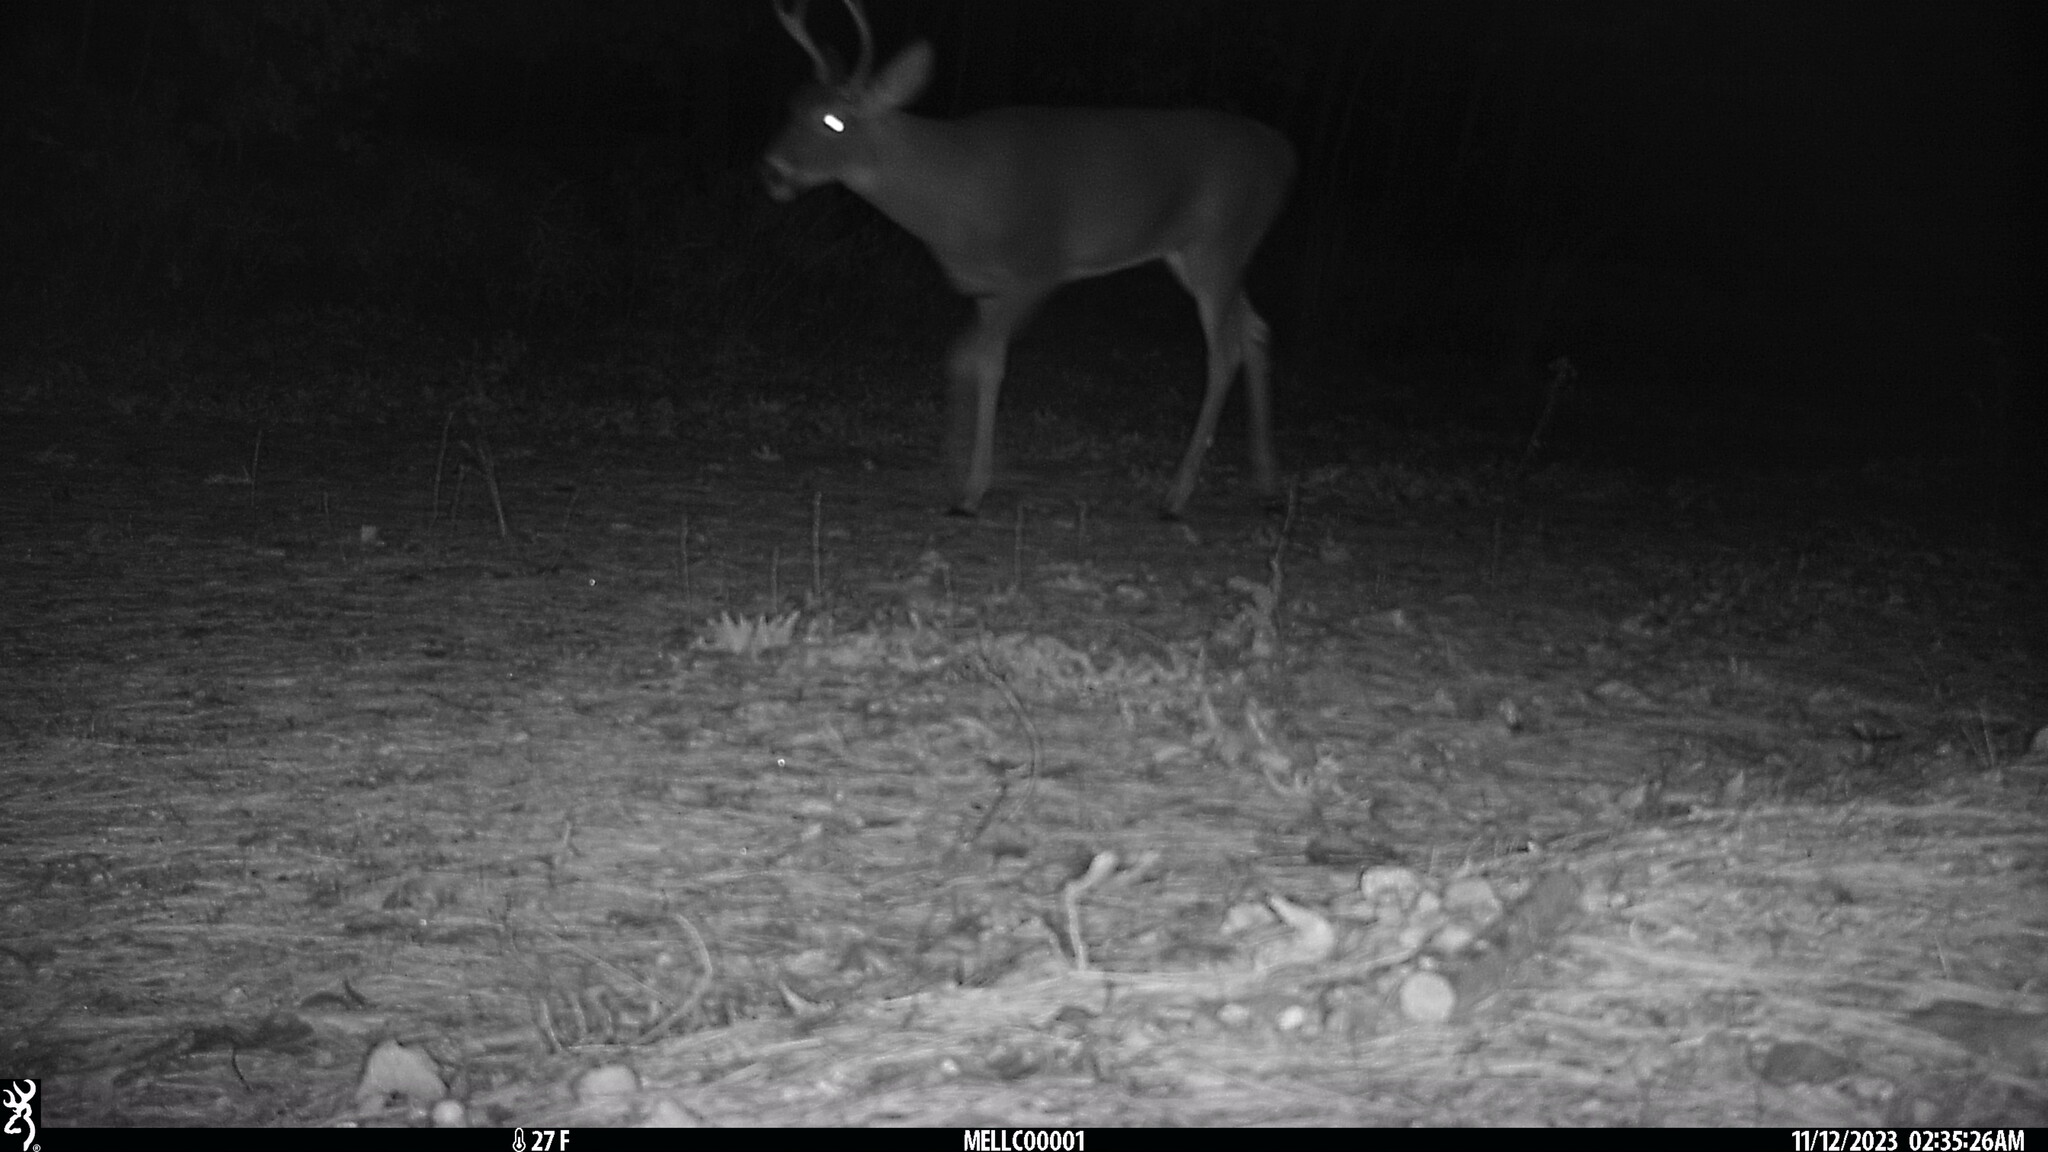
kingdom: Animalia
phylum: Chordata
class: Mammalia
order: Artiodactyla
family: Cervidae
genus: Odocoileus
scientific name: Odocoileus virginianus
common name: White-tailed deer
